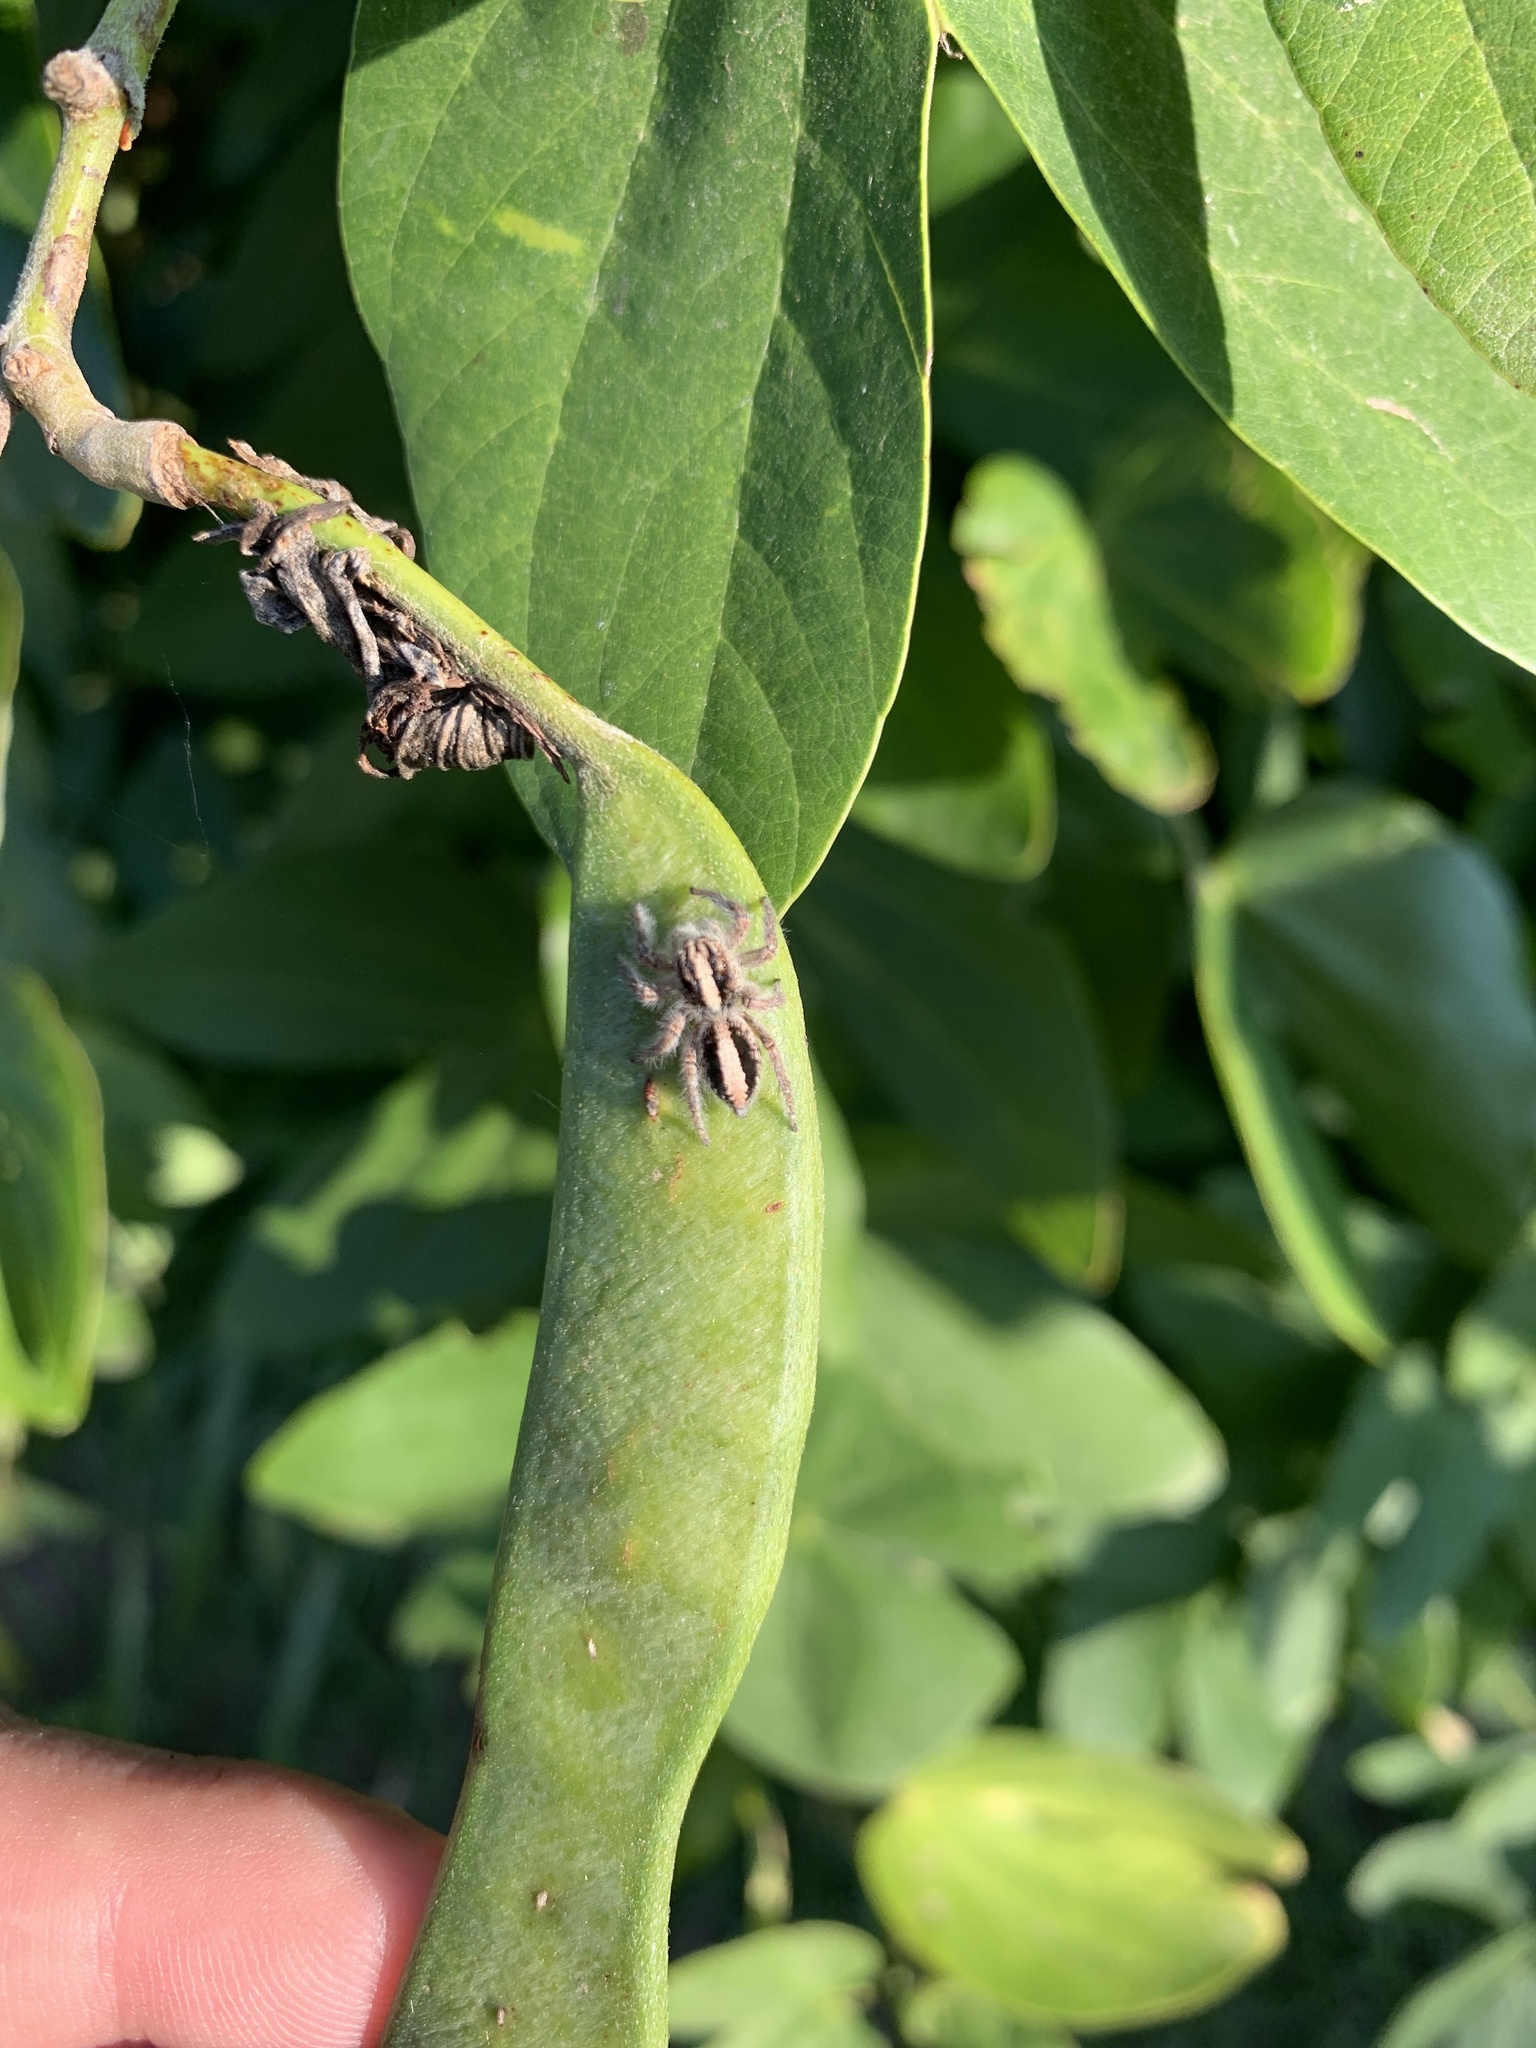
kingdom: Animalia
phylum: Arthropoda
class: Arachnida
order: Araneae
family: Salticidae
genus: Megafreya
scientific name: Megafreya sutrix
